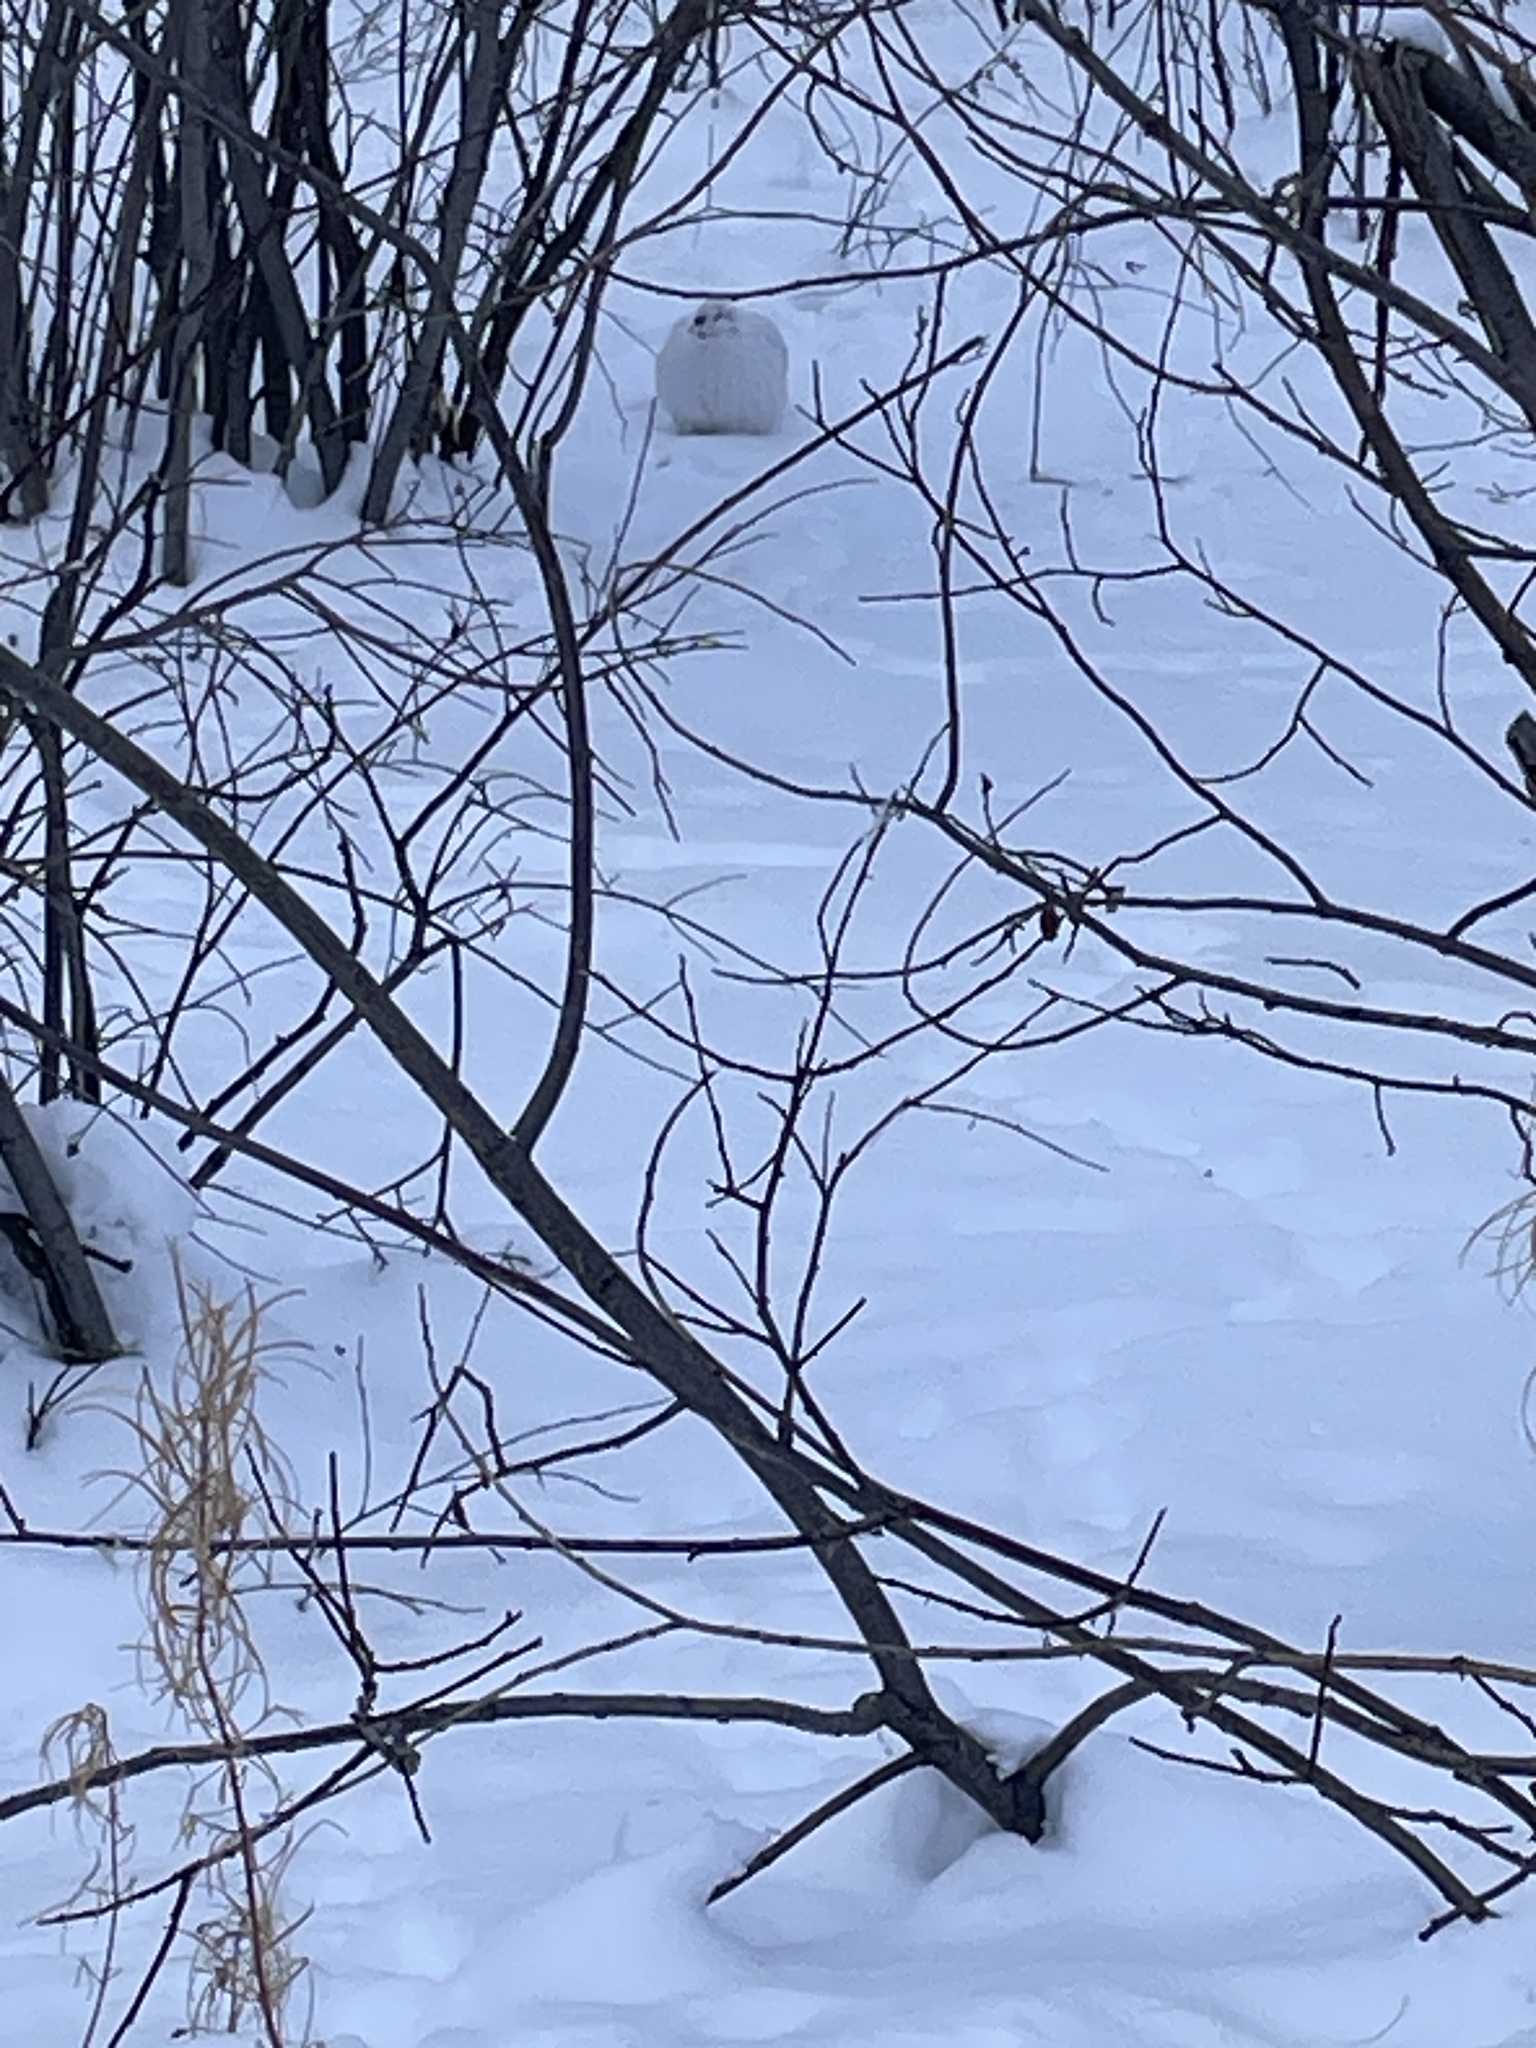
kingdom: Animalia
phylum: Chordata
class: Aves
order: Galliformes
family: Phasianidae
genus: Lagopus
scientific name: Lagopus lagopus
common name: Willow ptarmigan
